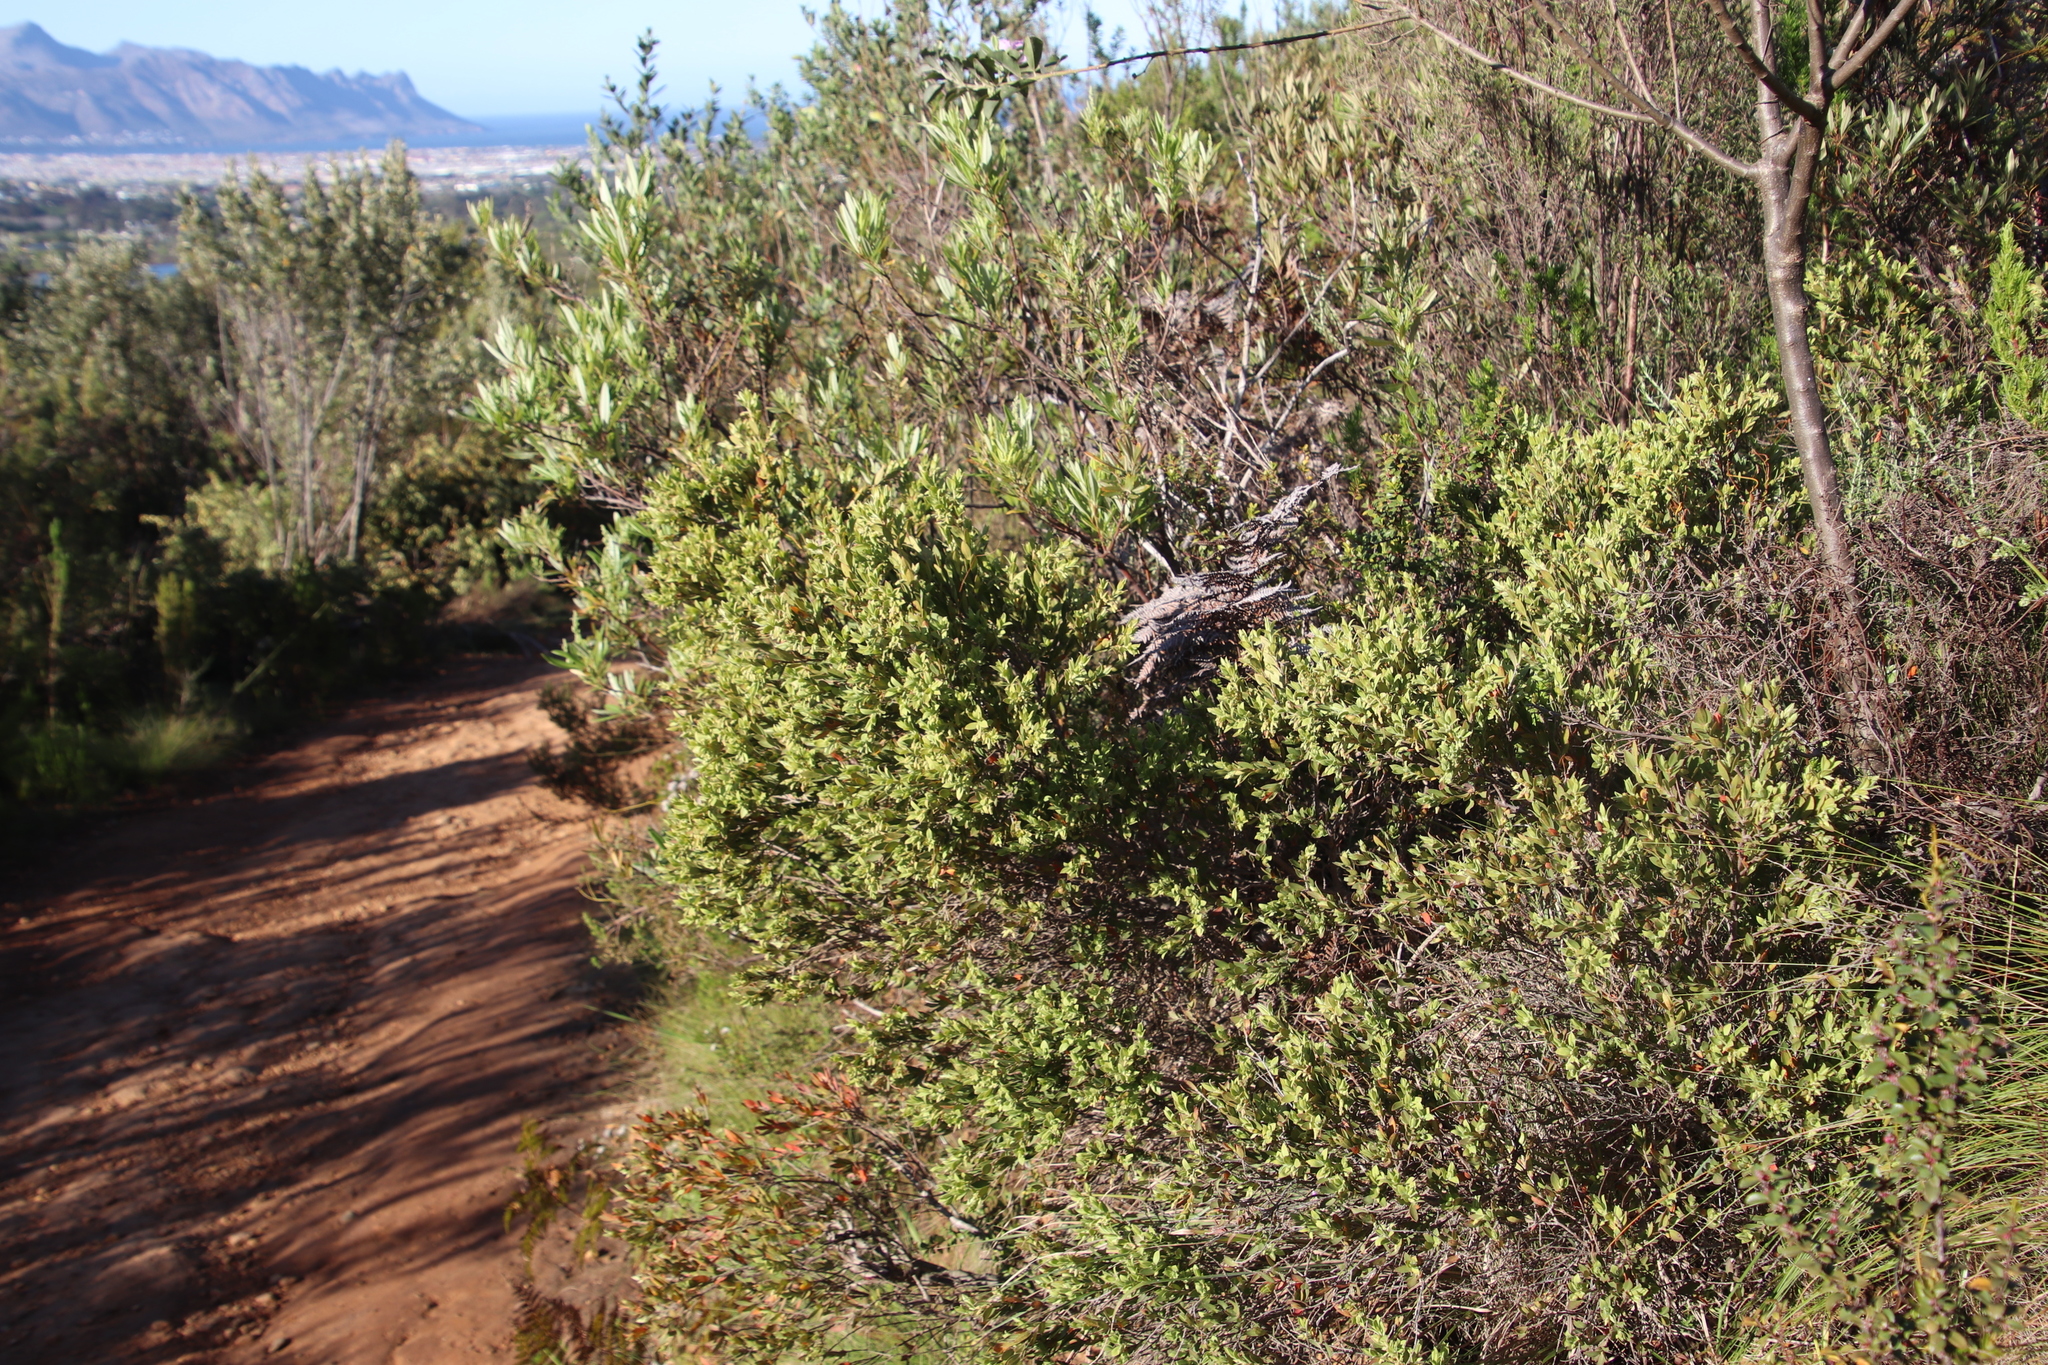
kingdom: Plantae
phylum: Tracheophyta
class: Magnoliopsida
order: Ericales
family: Ebenaceae
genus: Diospyros
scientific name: Diospyros glabra
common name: Fynbos star apple
